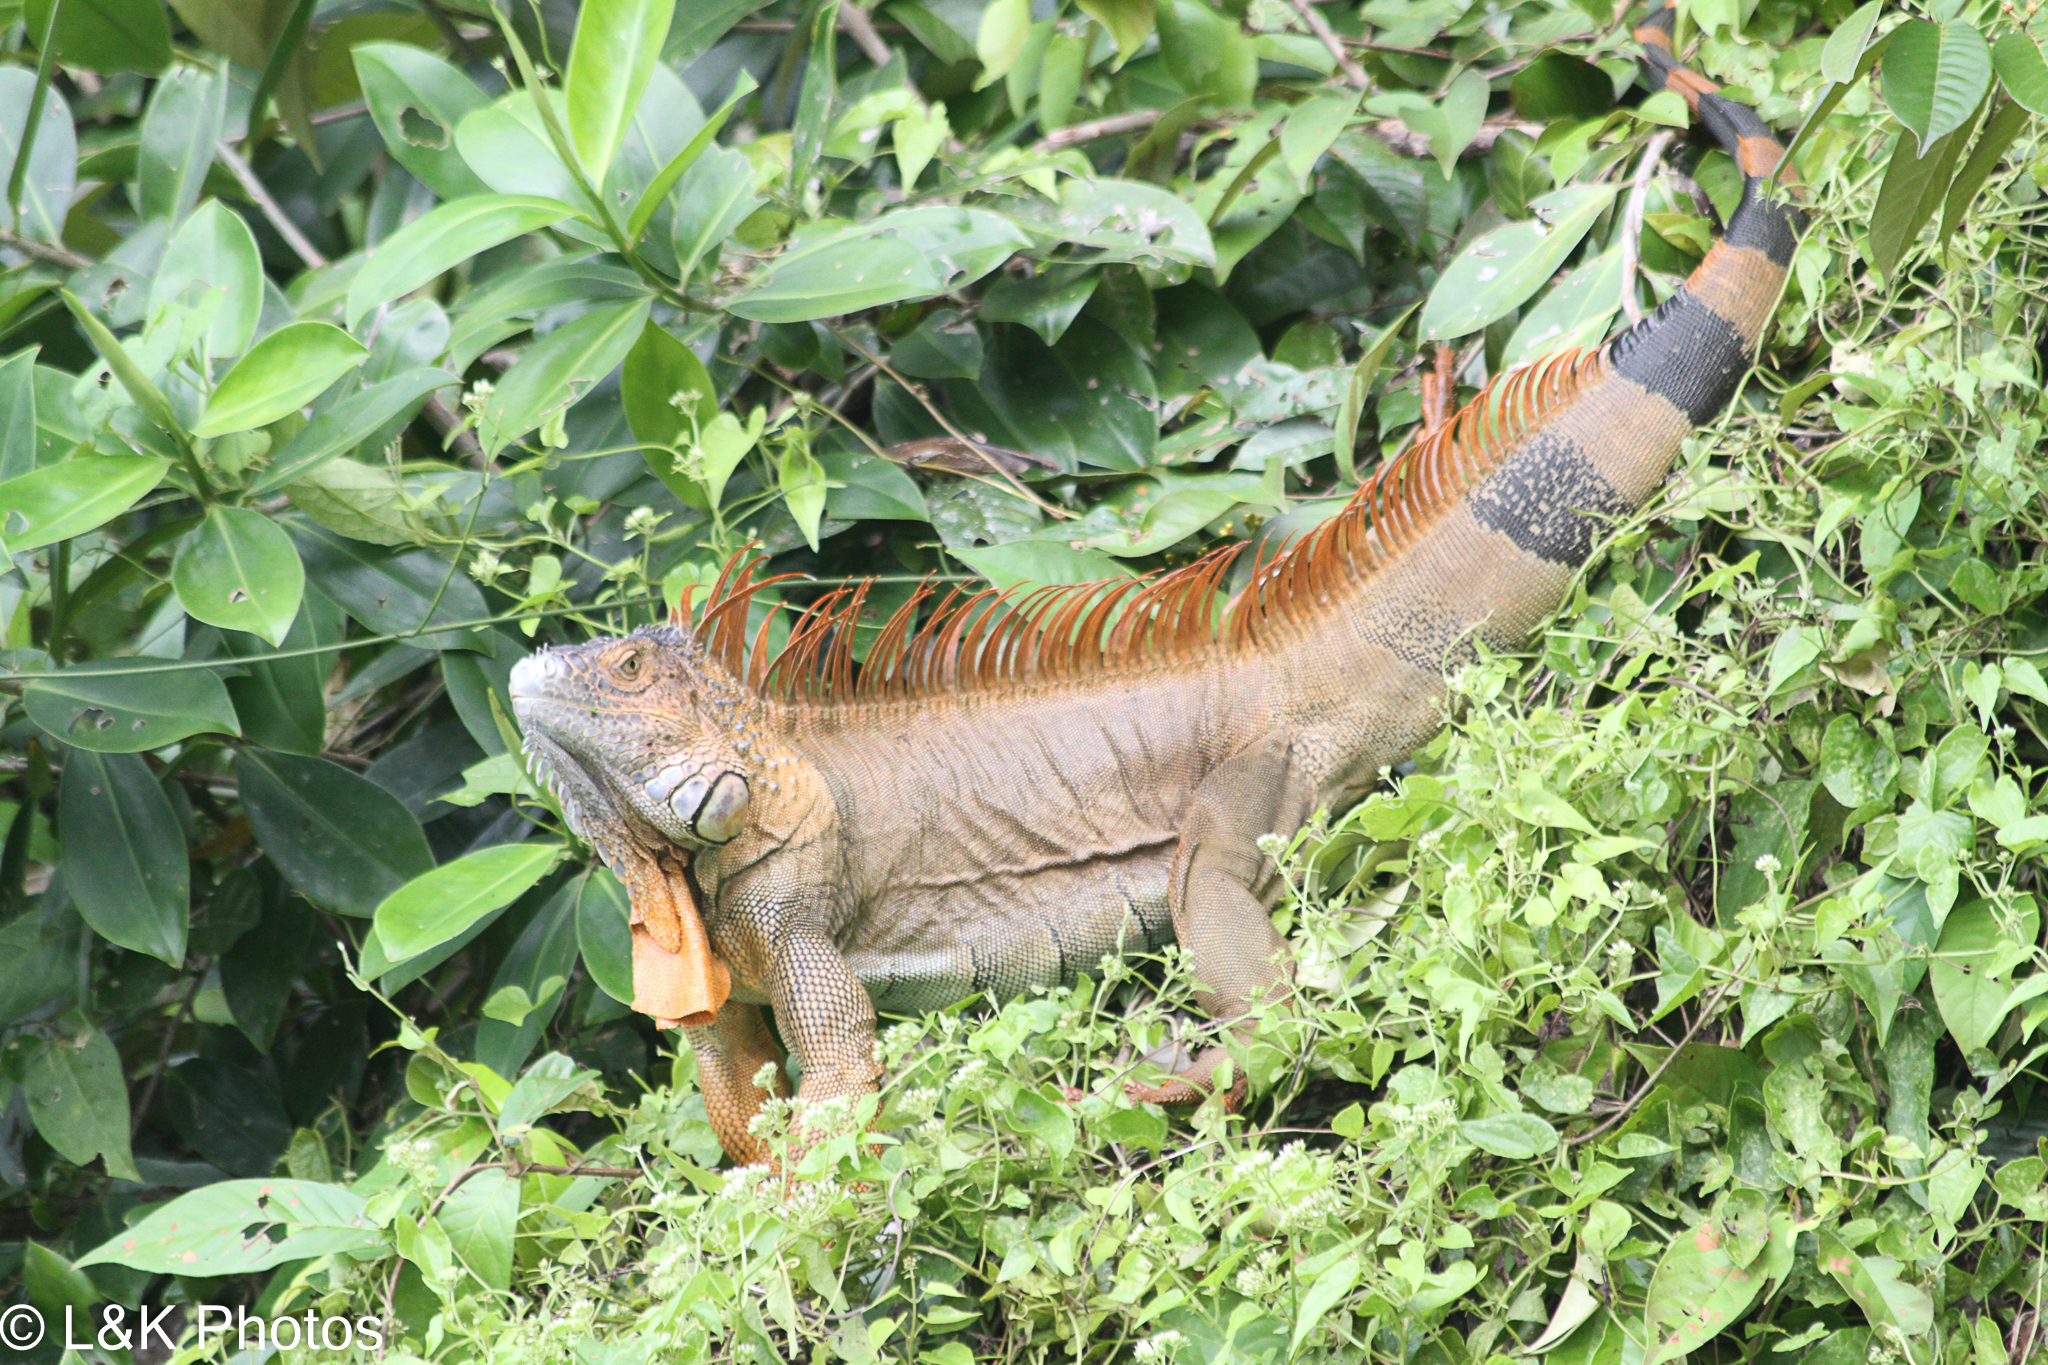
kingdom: Animalia
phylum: Chordata
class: Squamata
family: Iguanidae
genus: Iguana
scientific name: Iguana iguana
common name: Green iguana
